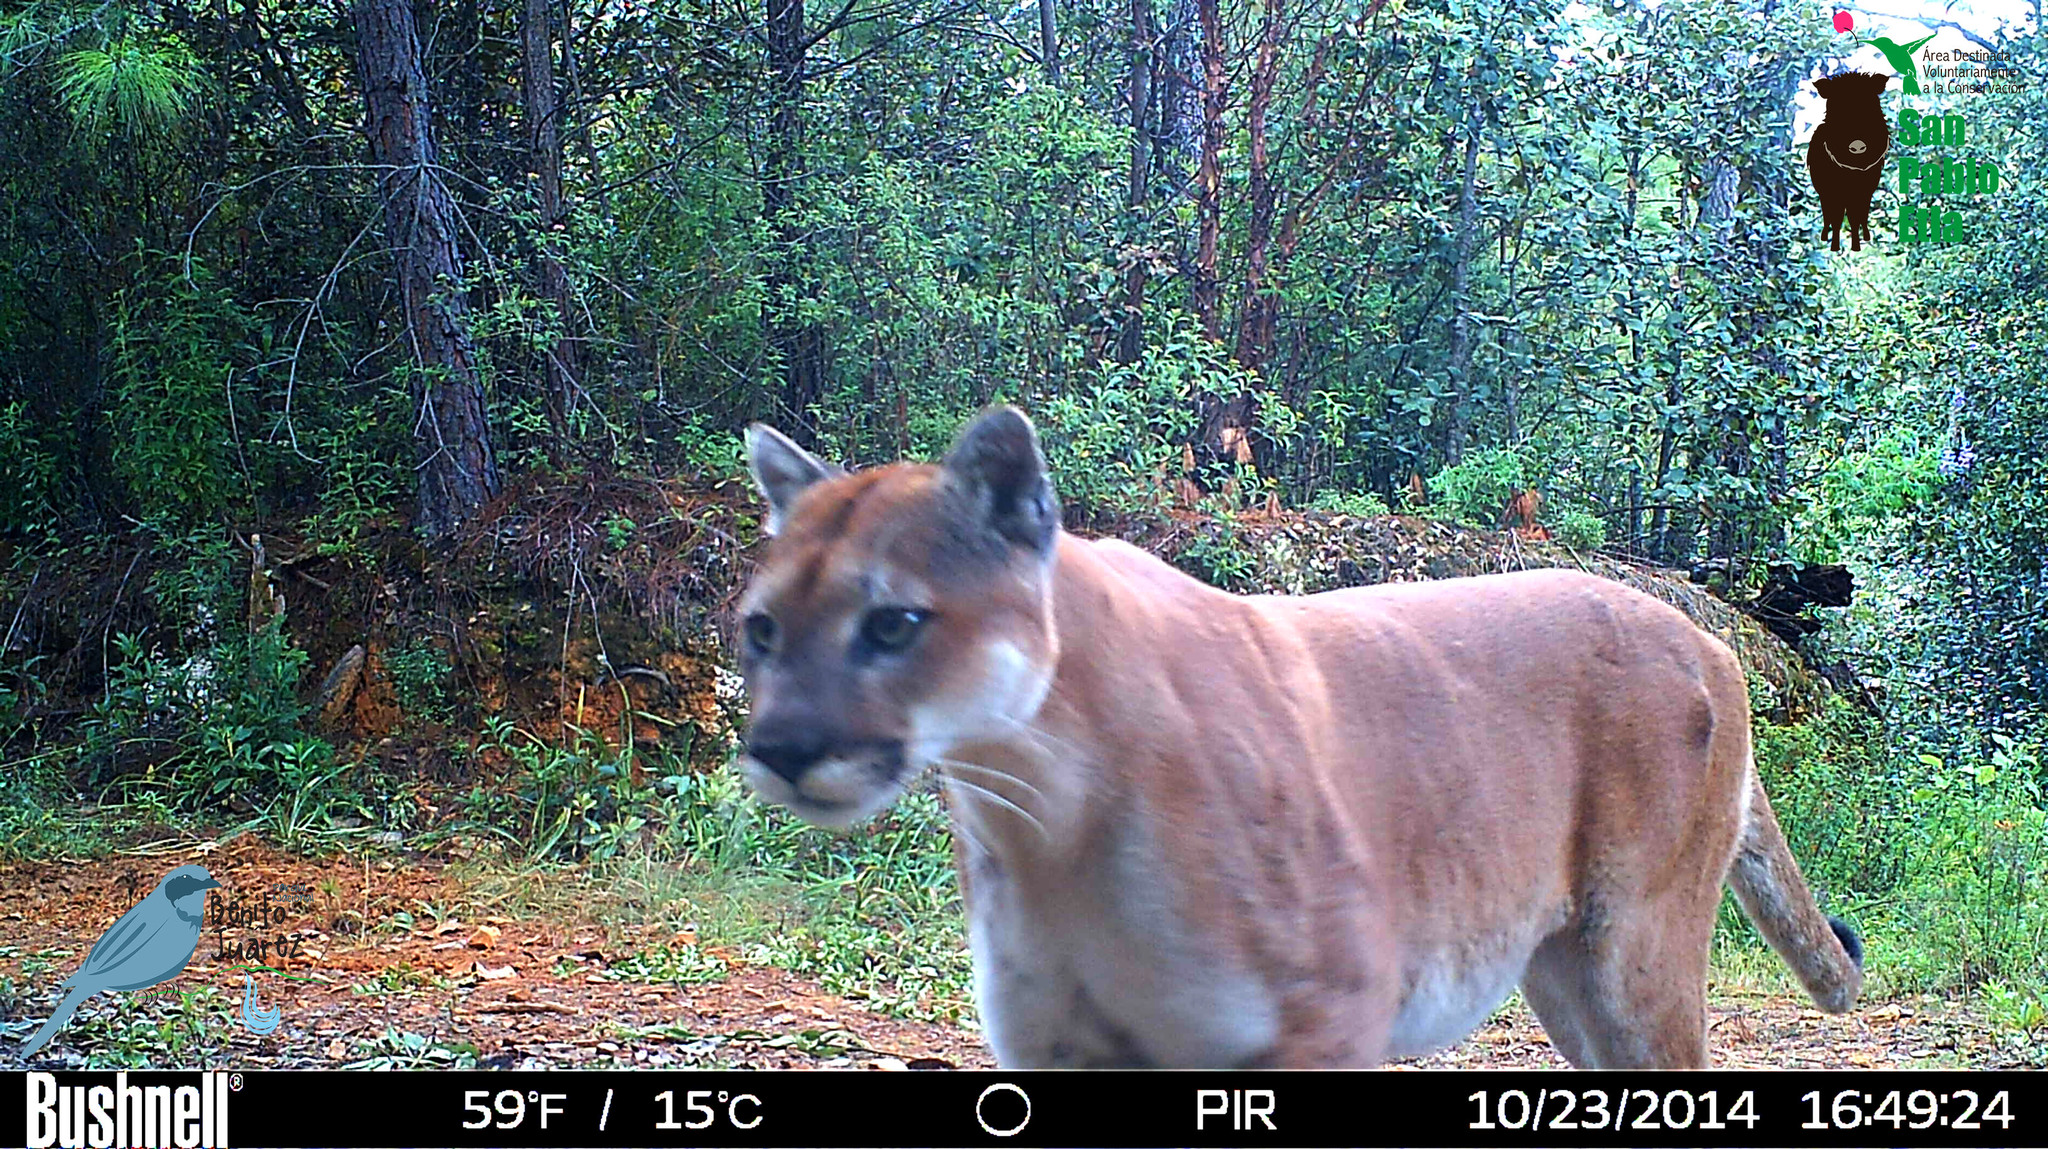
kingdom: Animalia
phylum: Chordata
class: Mammalia
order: Carnivora
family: Felidae
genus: Puma
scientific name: Puma concolor
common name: Puma
